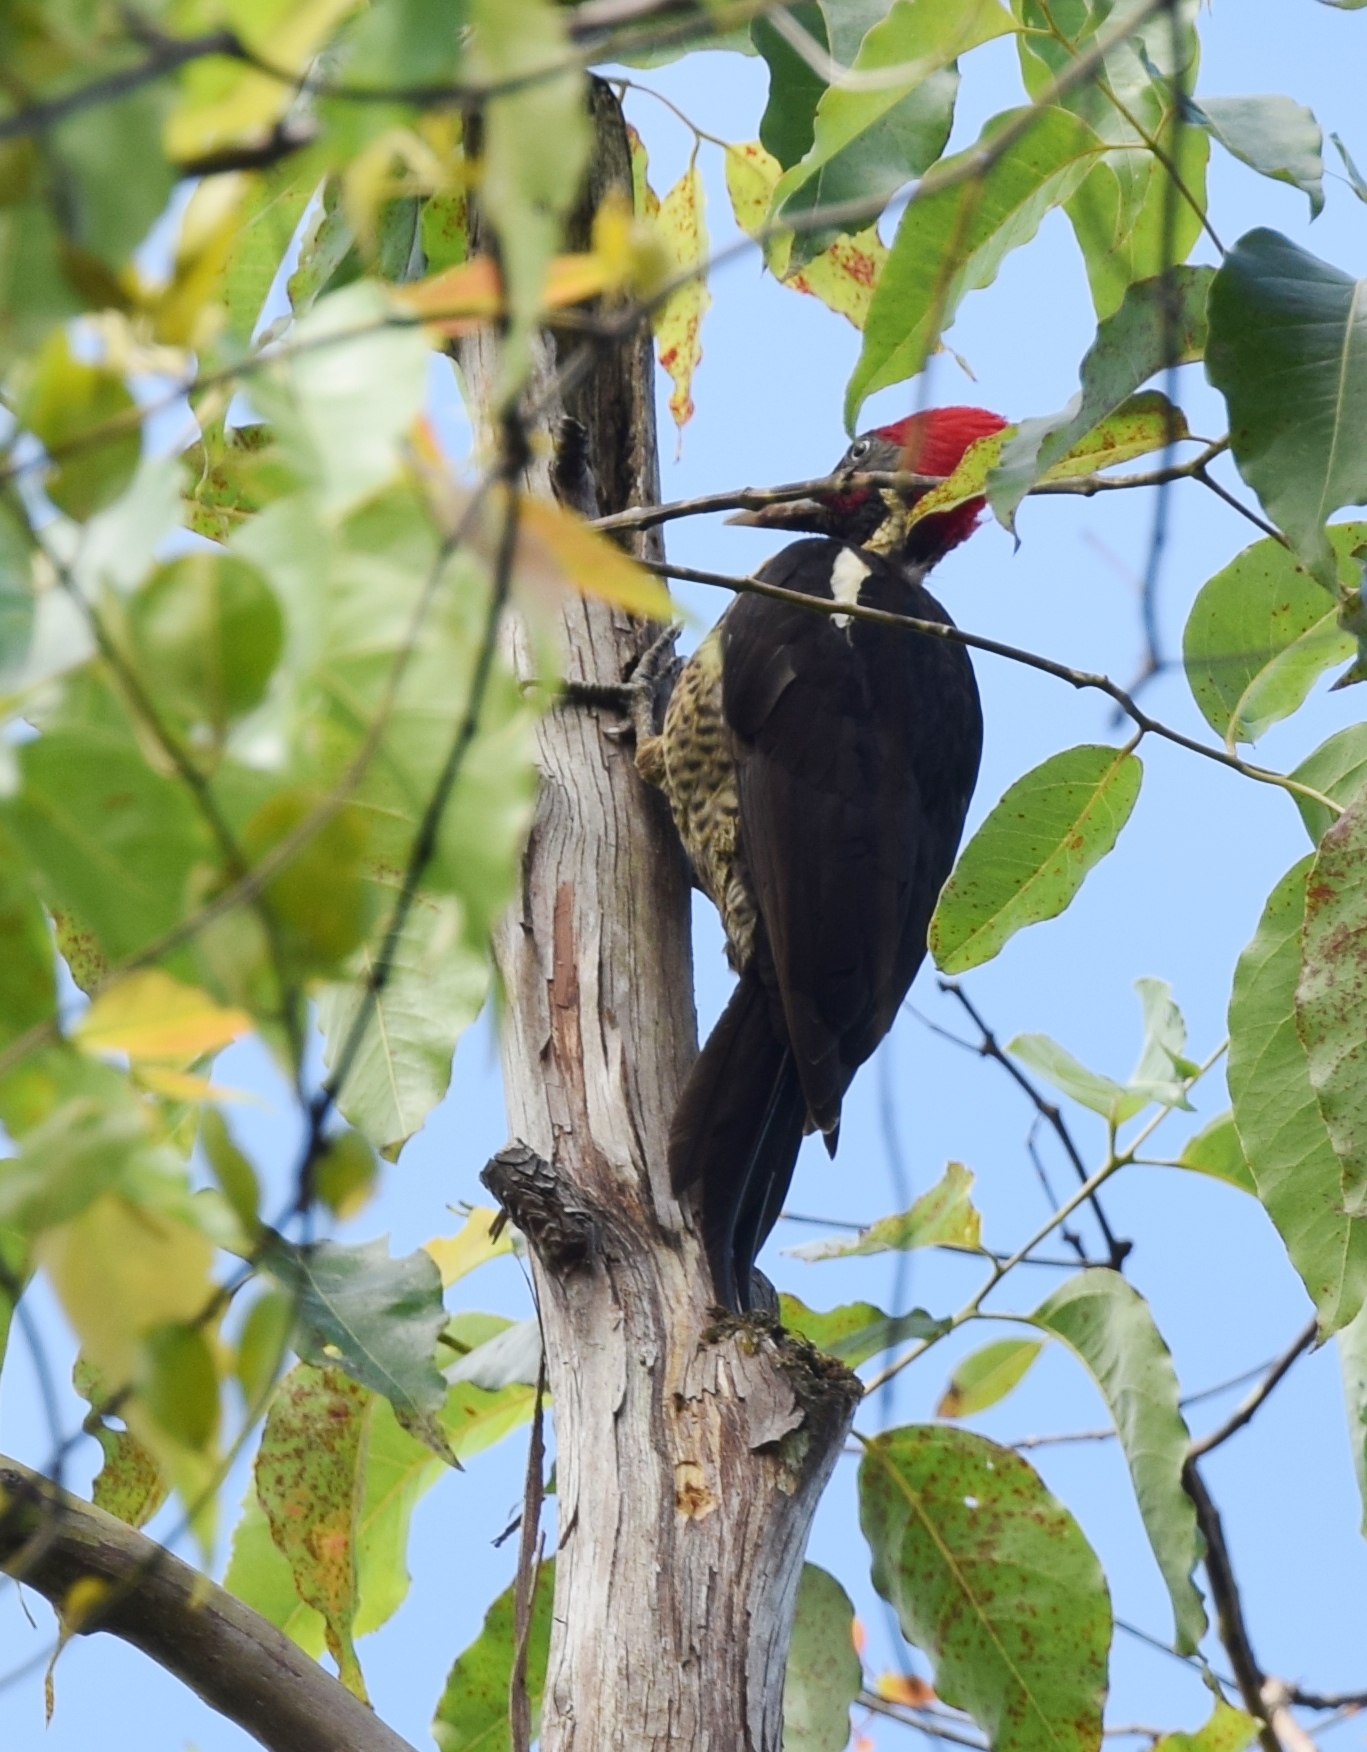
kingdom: Animalia
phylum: Chordata
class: Aves
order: Piciformes
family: Picidae
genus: Dryocopus
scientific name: Dryocopus lineatus
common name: Lineated woodpecker
